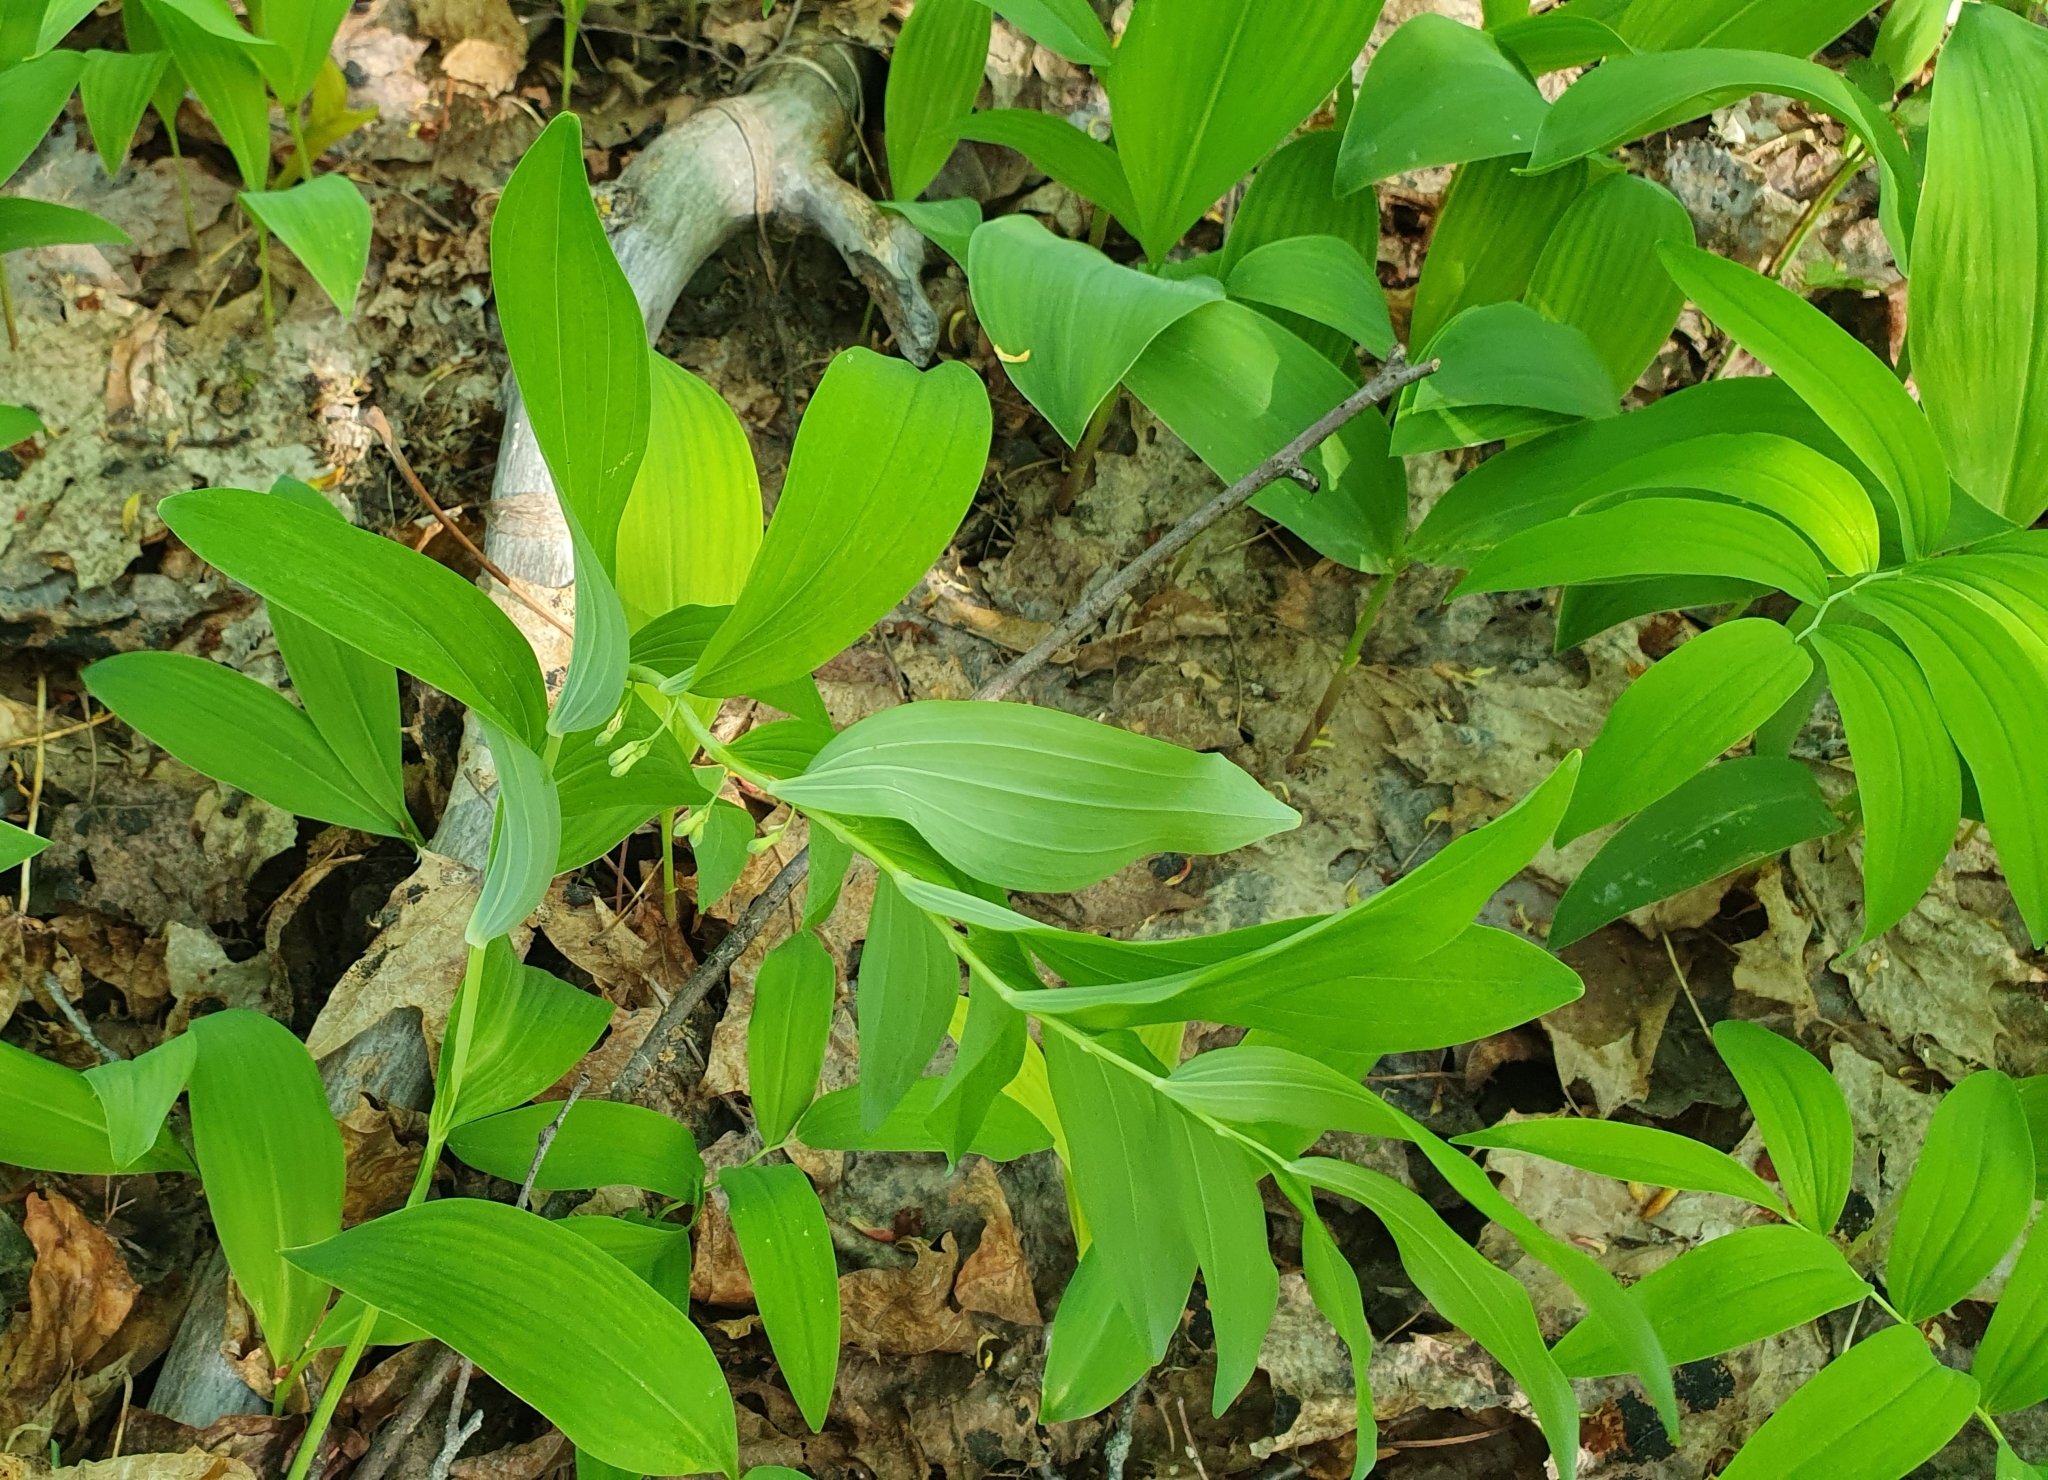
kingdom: Plantae
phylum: Tracheophyta
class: Liliopsida
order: Asparagales
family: Asparagaceae
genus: Polygonatum
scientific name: Polygonatum multiflorum
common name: Solomon's-seal
